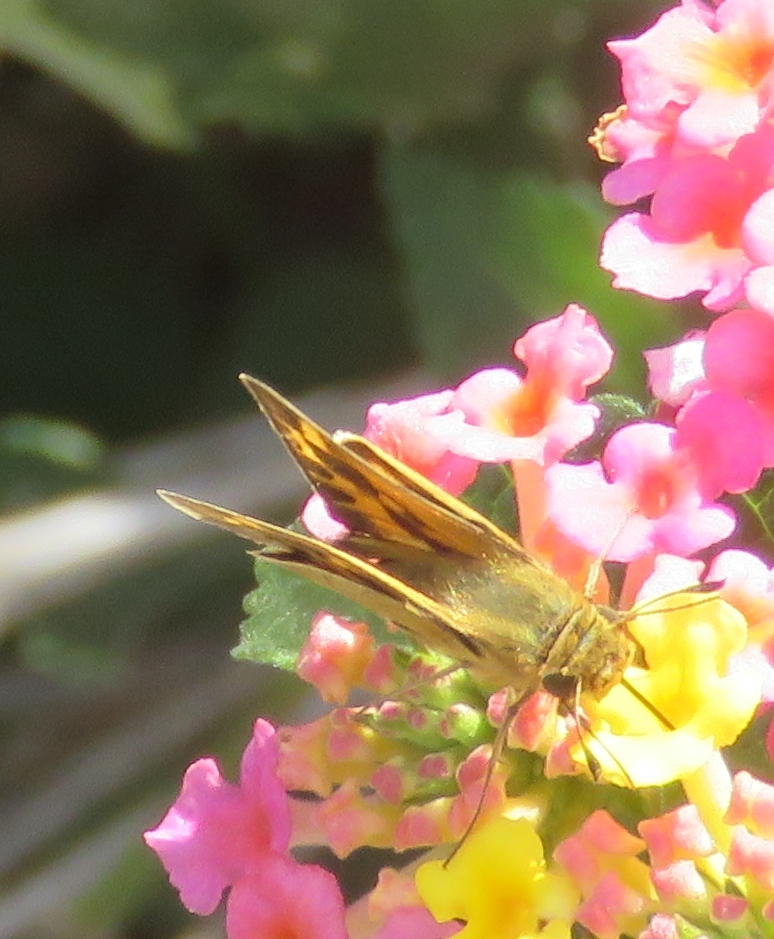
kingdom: Animalia
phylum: Arthropoda
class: Insecta
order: Lepidoptera
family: Hesperiidae
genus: Hylephila
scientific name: Hylephila phyleus
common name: Fiery skipper
